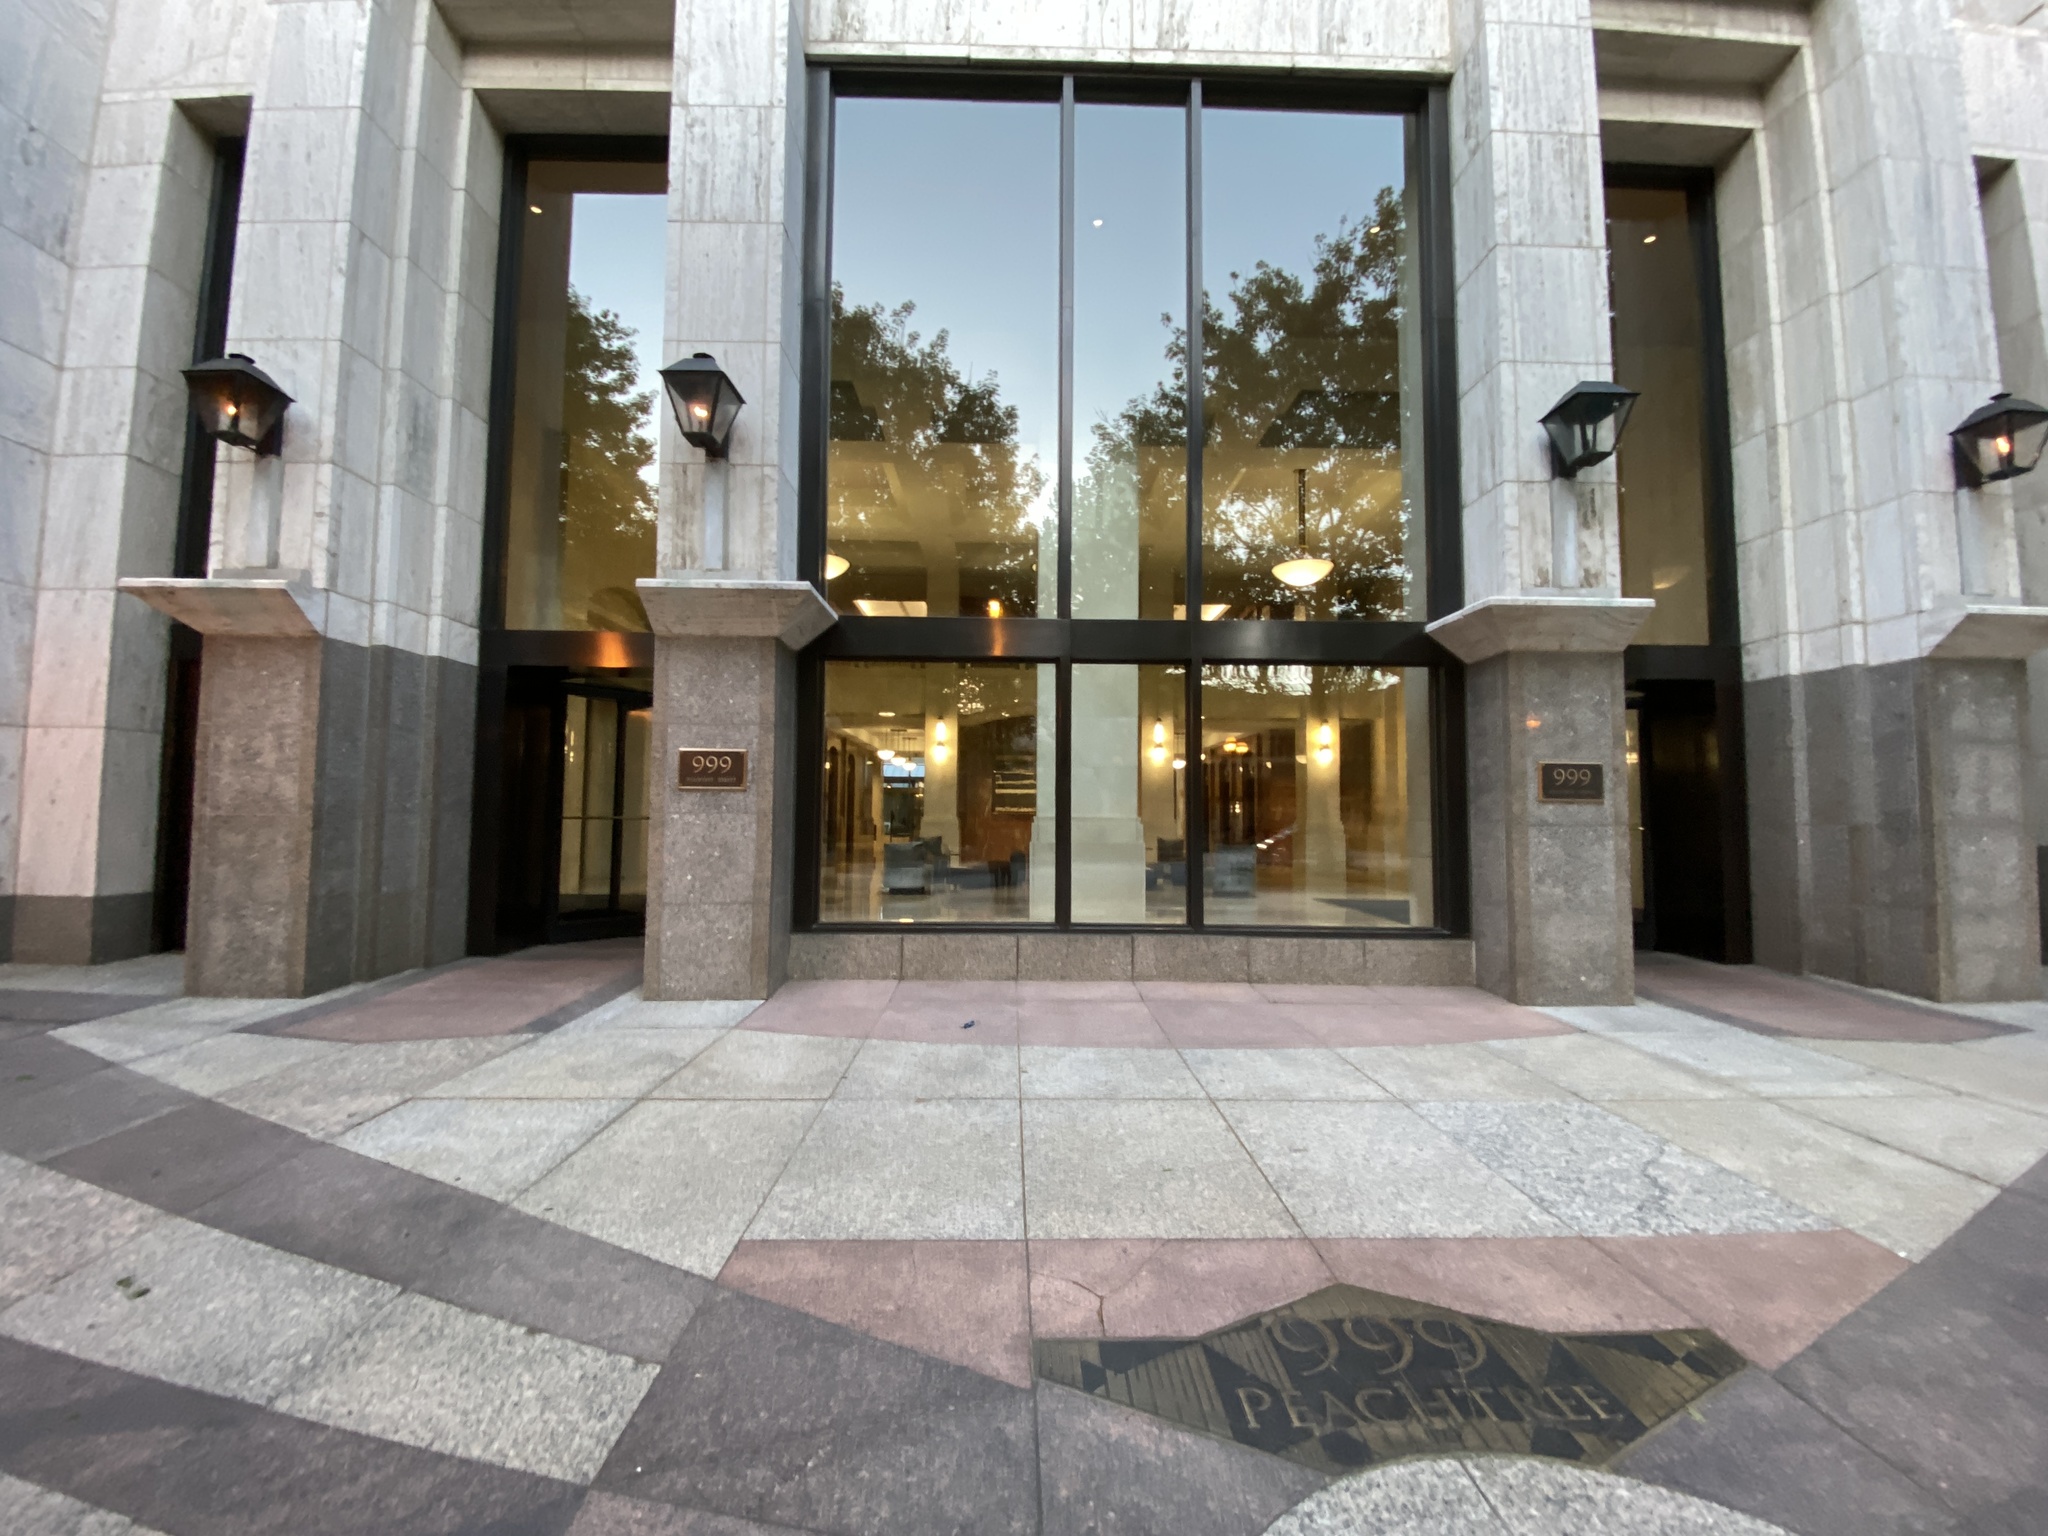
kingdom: Animalia
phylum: Chordata
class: Aves
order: Passeriformes
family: Cardinalidae
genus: Passerina
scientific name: Passerina cyanea
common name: Indigo bunting
